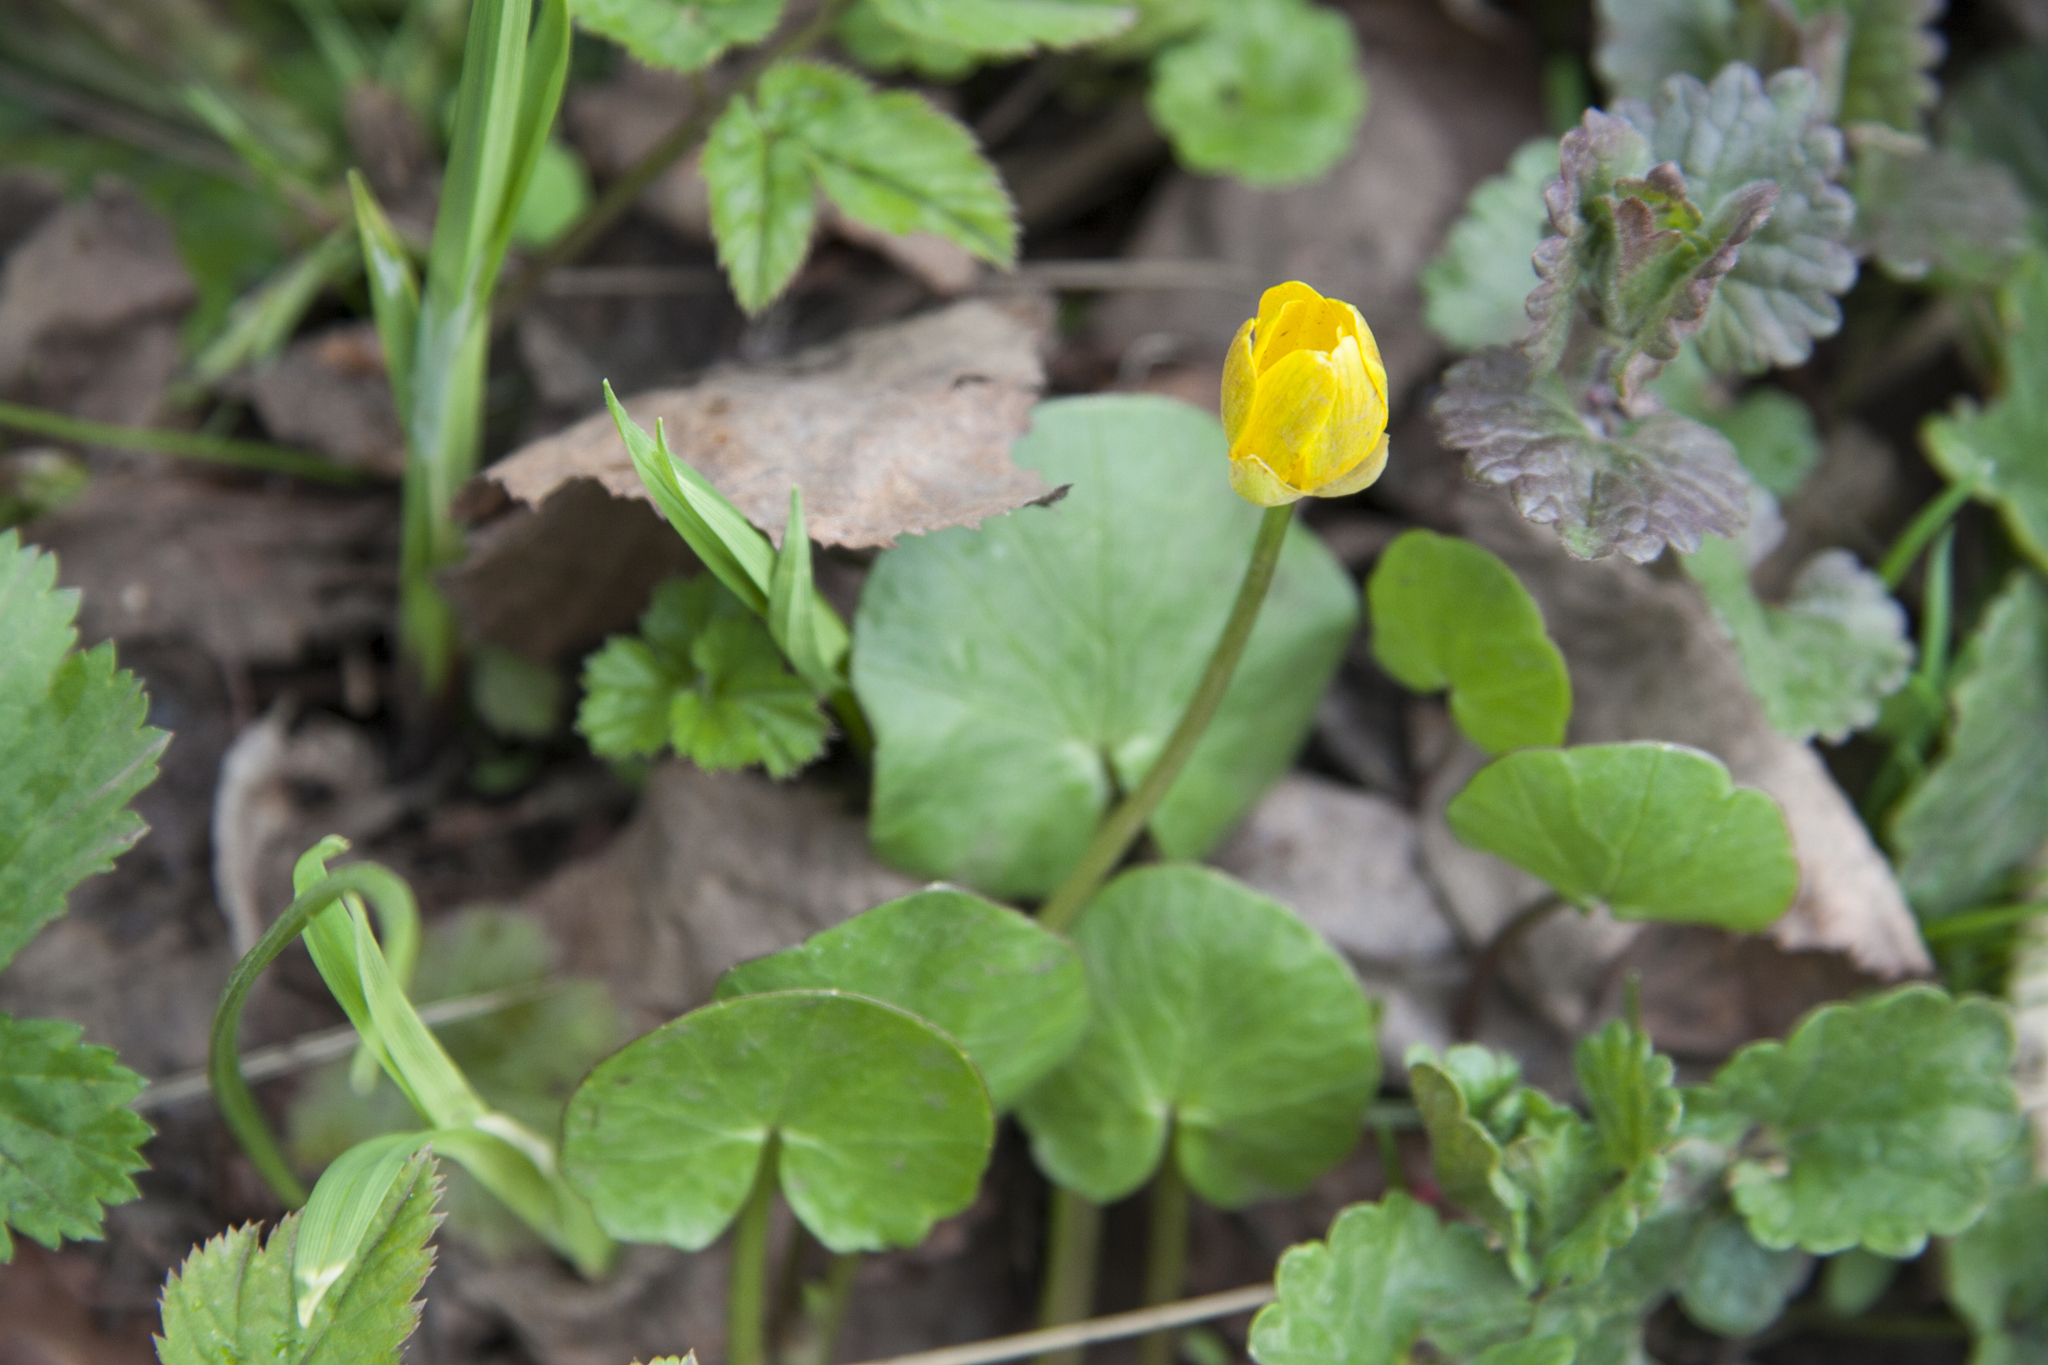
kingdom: Plantae
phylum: Tracheophyta
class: Magnoliopsida
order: Ranunculales
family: Ranunculaceae
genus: Ficaria
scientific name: Ficaria verna
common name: Lesser celandine
